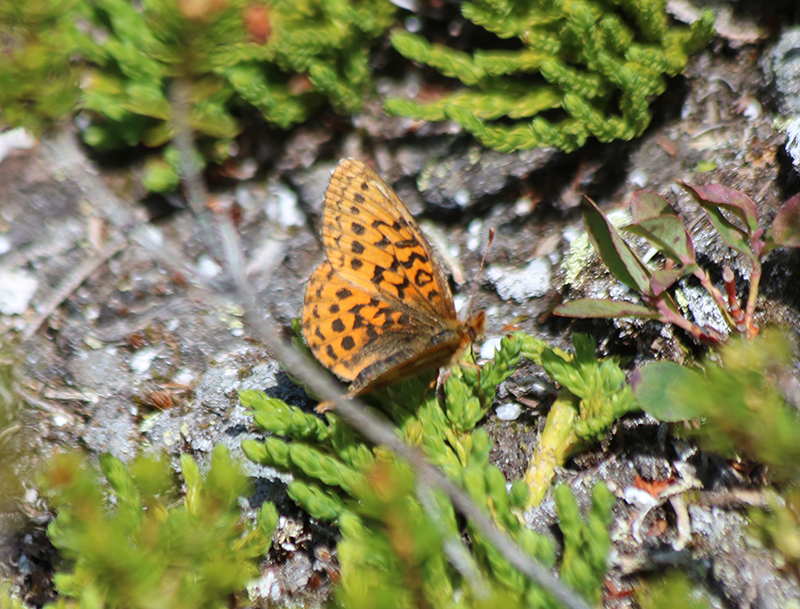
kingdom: Animalia
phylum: Arthropoda
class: Insecta
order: Lepidoptera
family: Nymphalidae
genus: Boloria
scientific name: Boloria epithore
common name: Pacific fritillary
